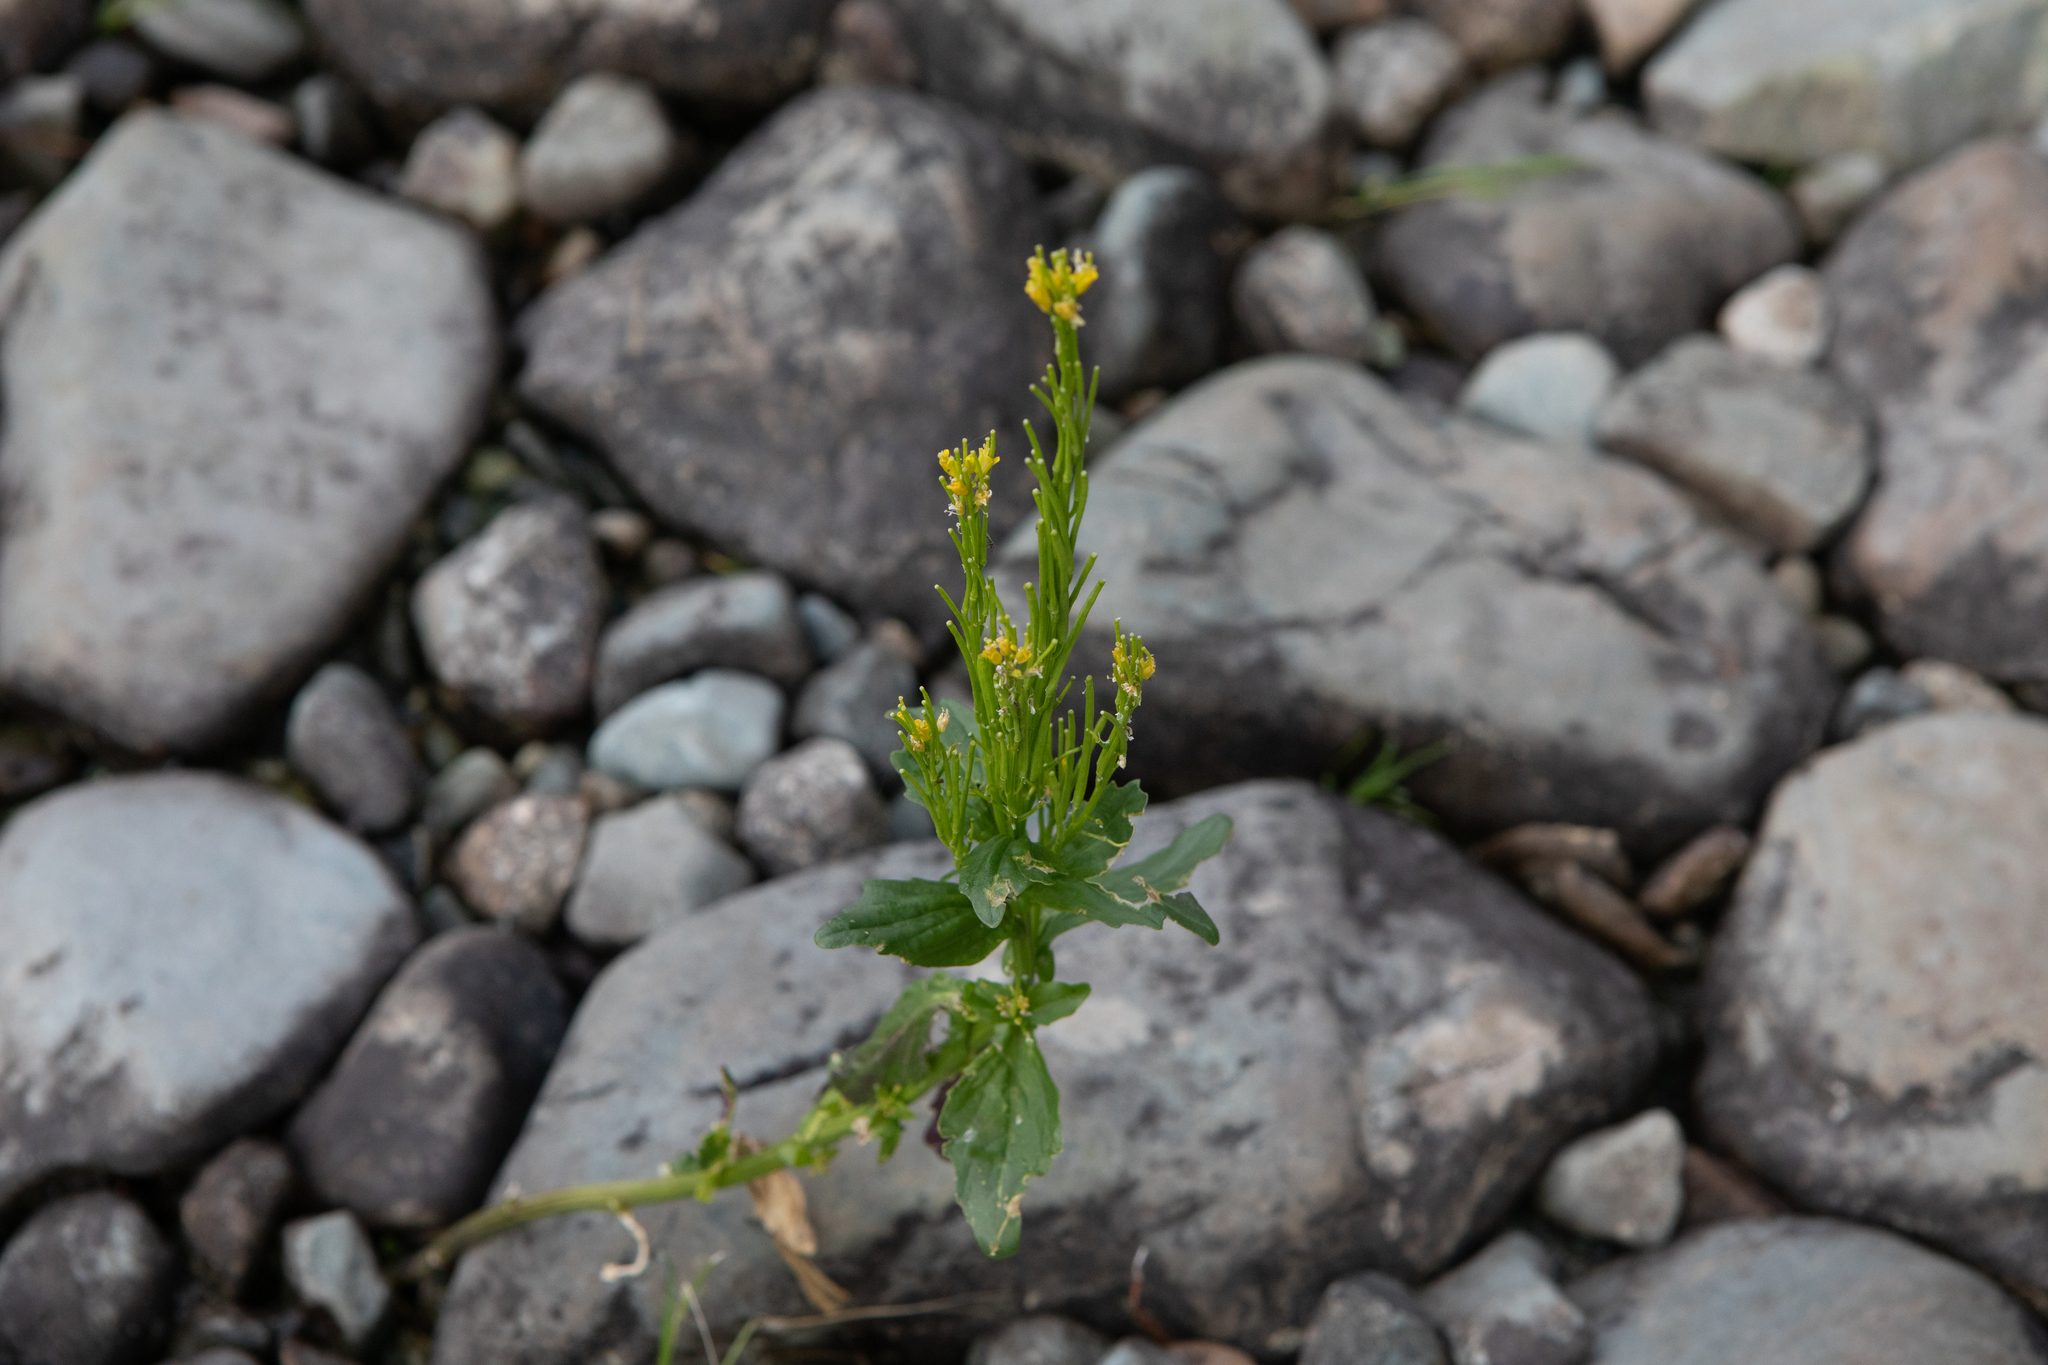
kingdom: Plantae
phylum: Tracheophyta
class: Magnoliopsida
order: Brassicales
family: Brassicaceae
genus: Barbarea
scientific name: Barbarea stricta
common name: Small-flowered winter-cress
